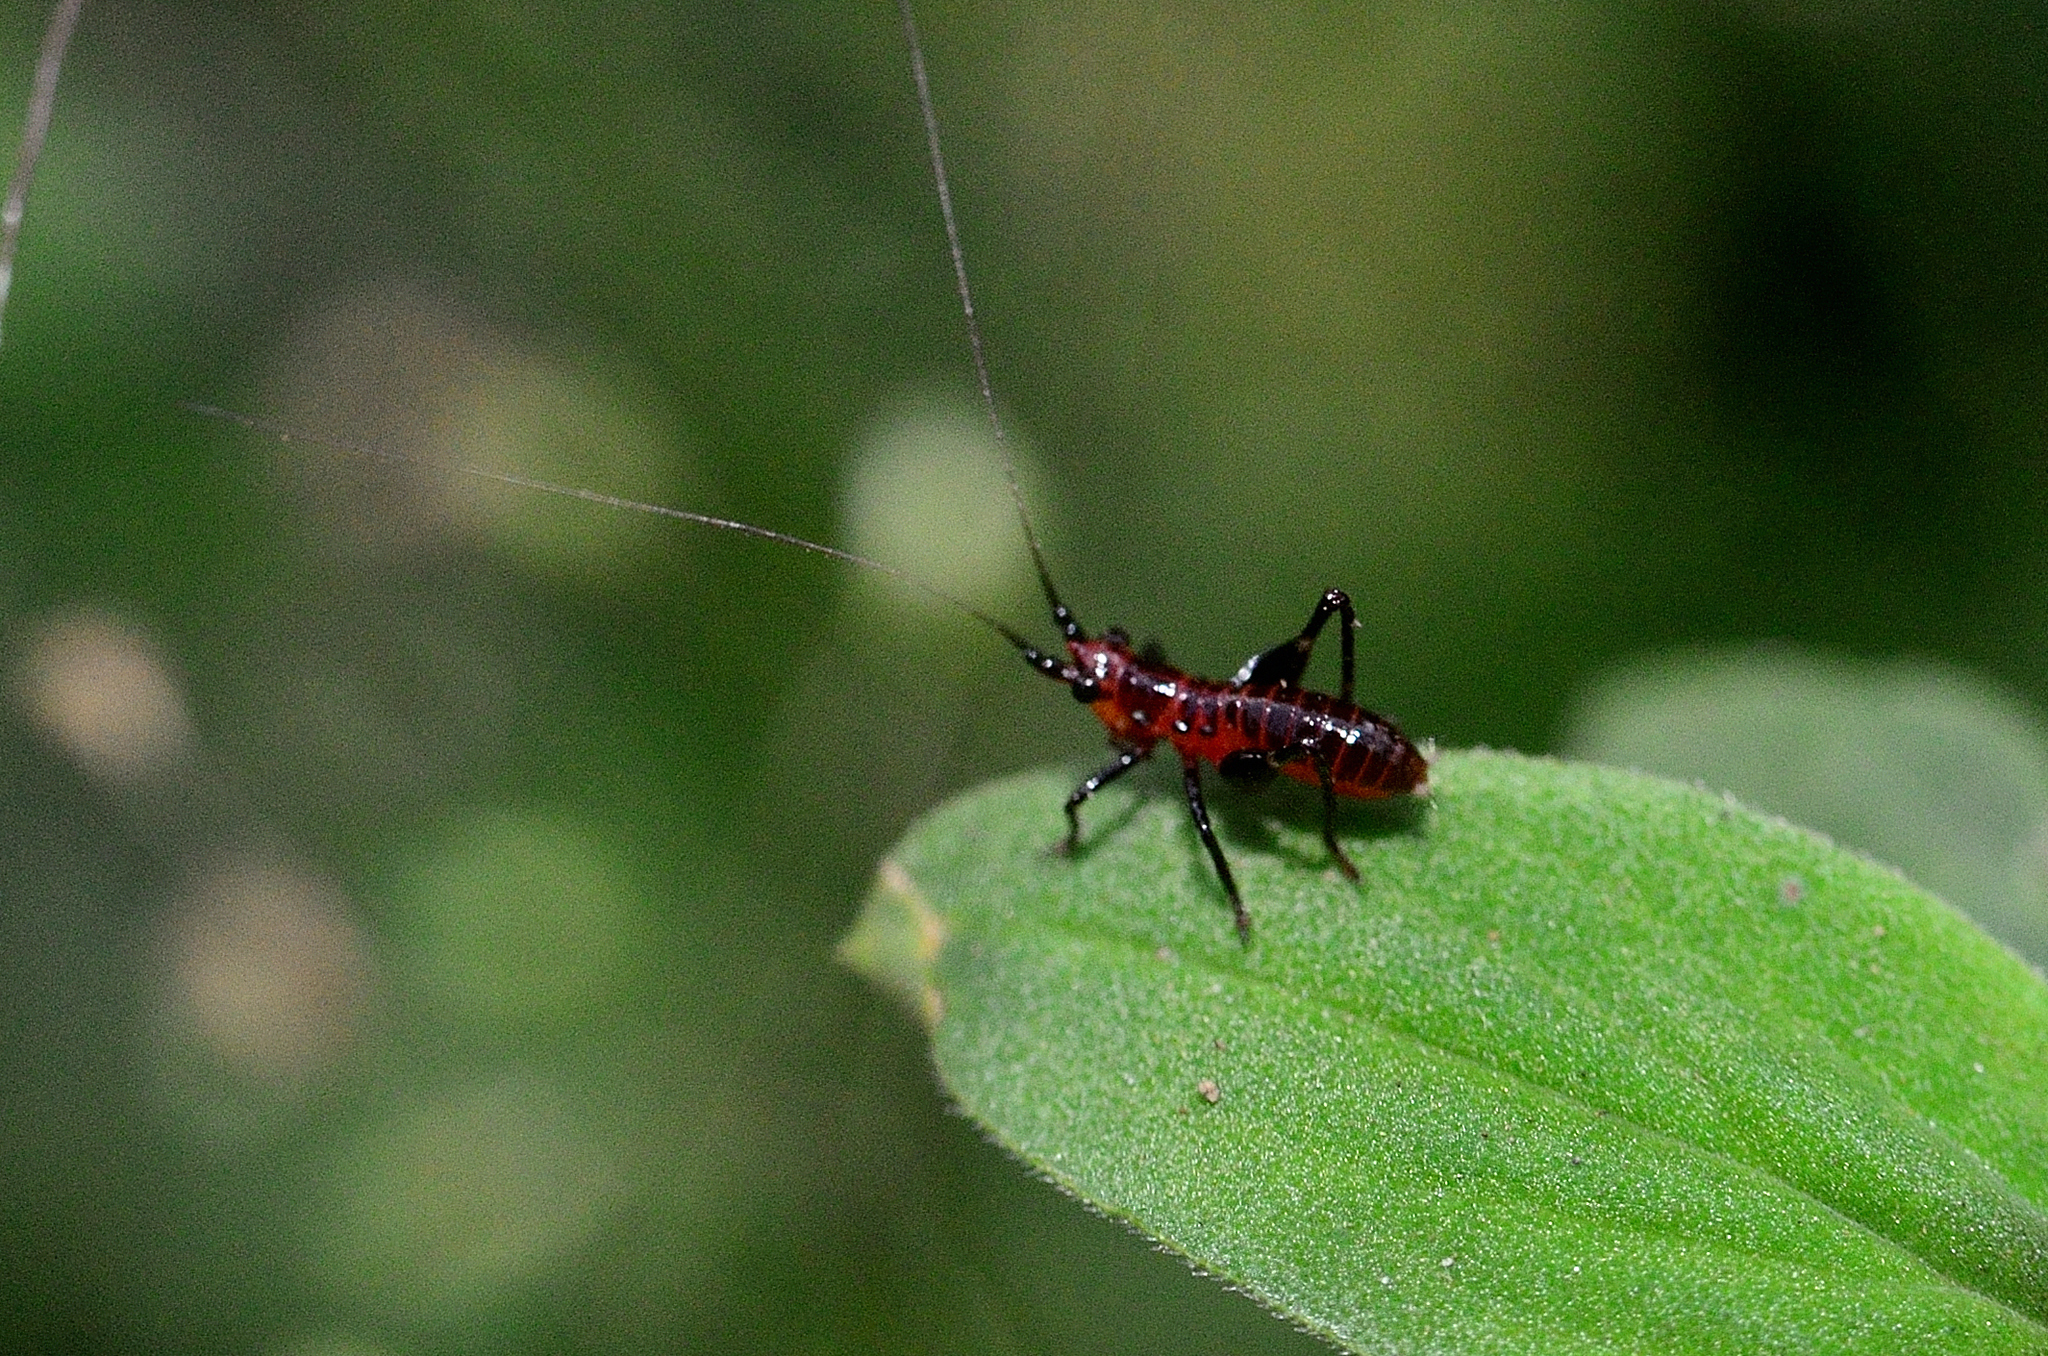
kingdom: Animalia
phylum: Arthropoda
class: Insecta
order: Orthoptera
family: Tettigoniidae
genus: Conocephalus
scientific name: Conocephalus melaenus
